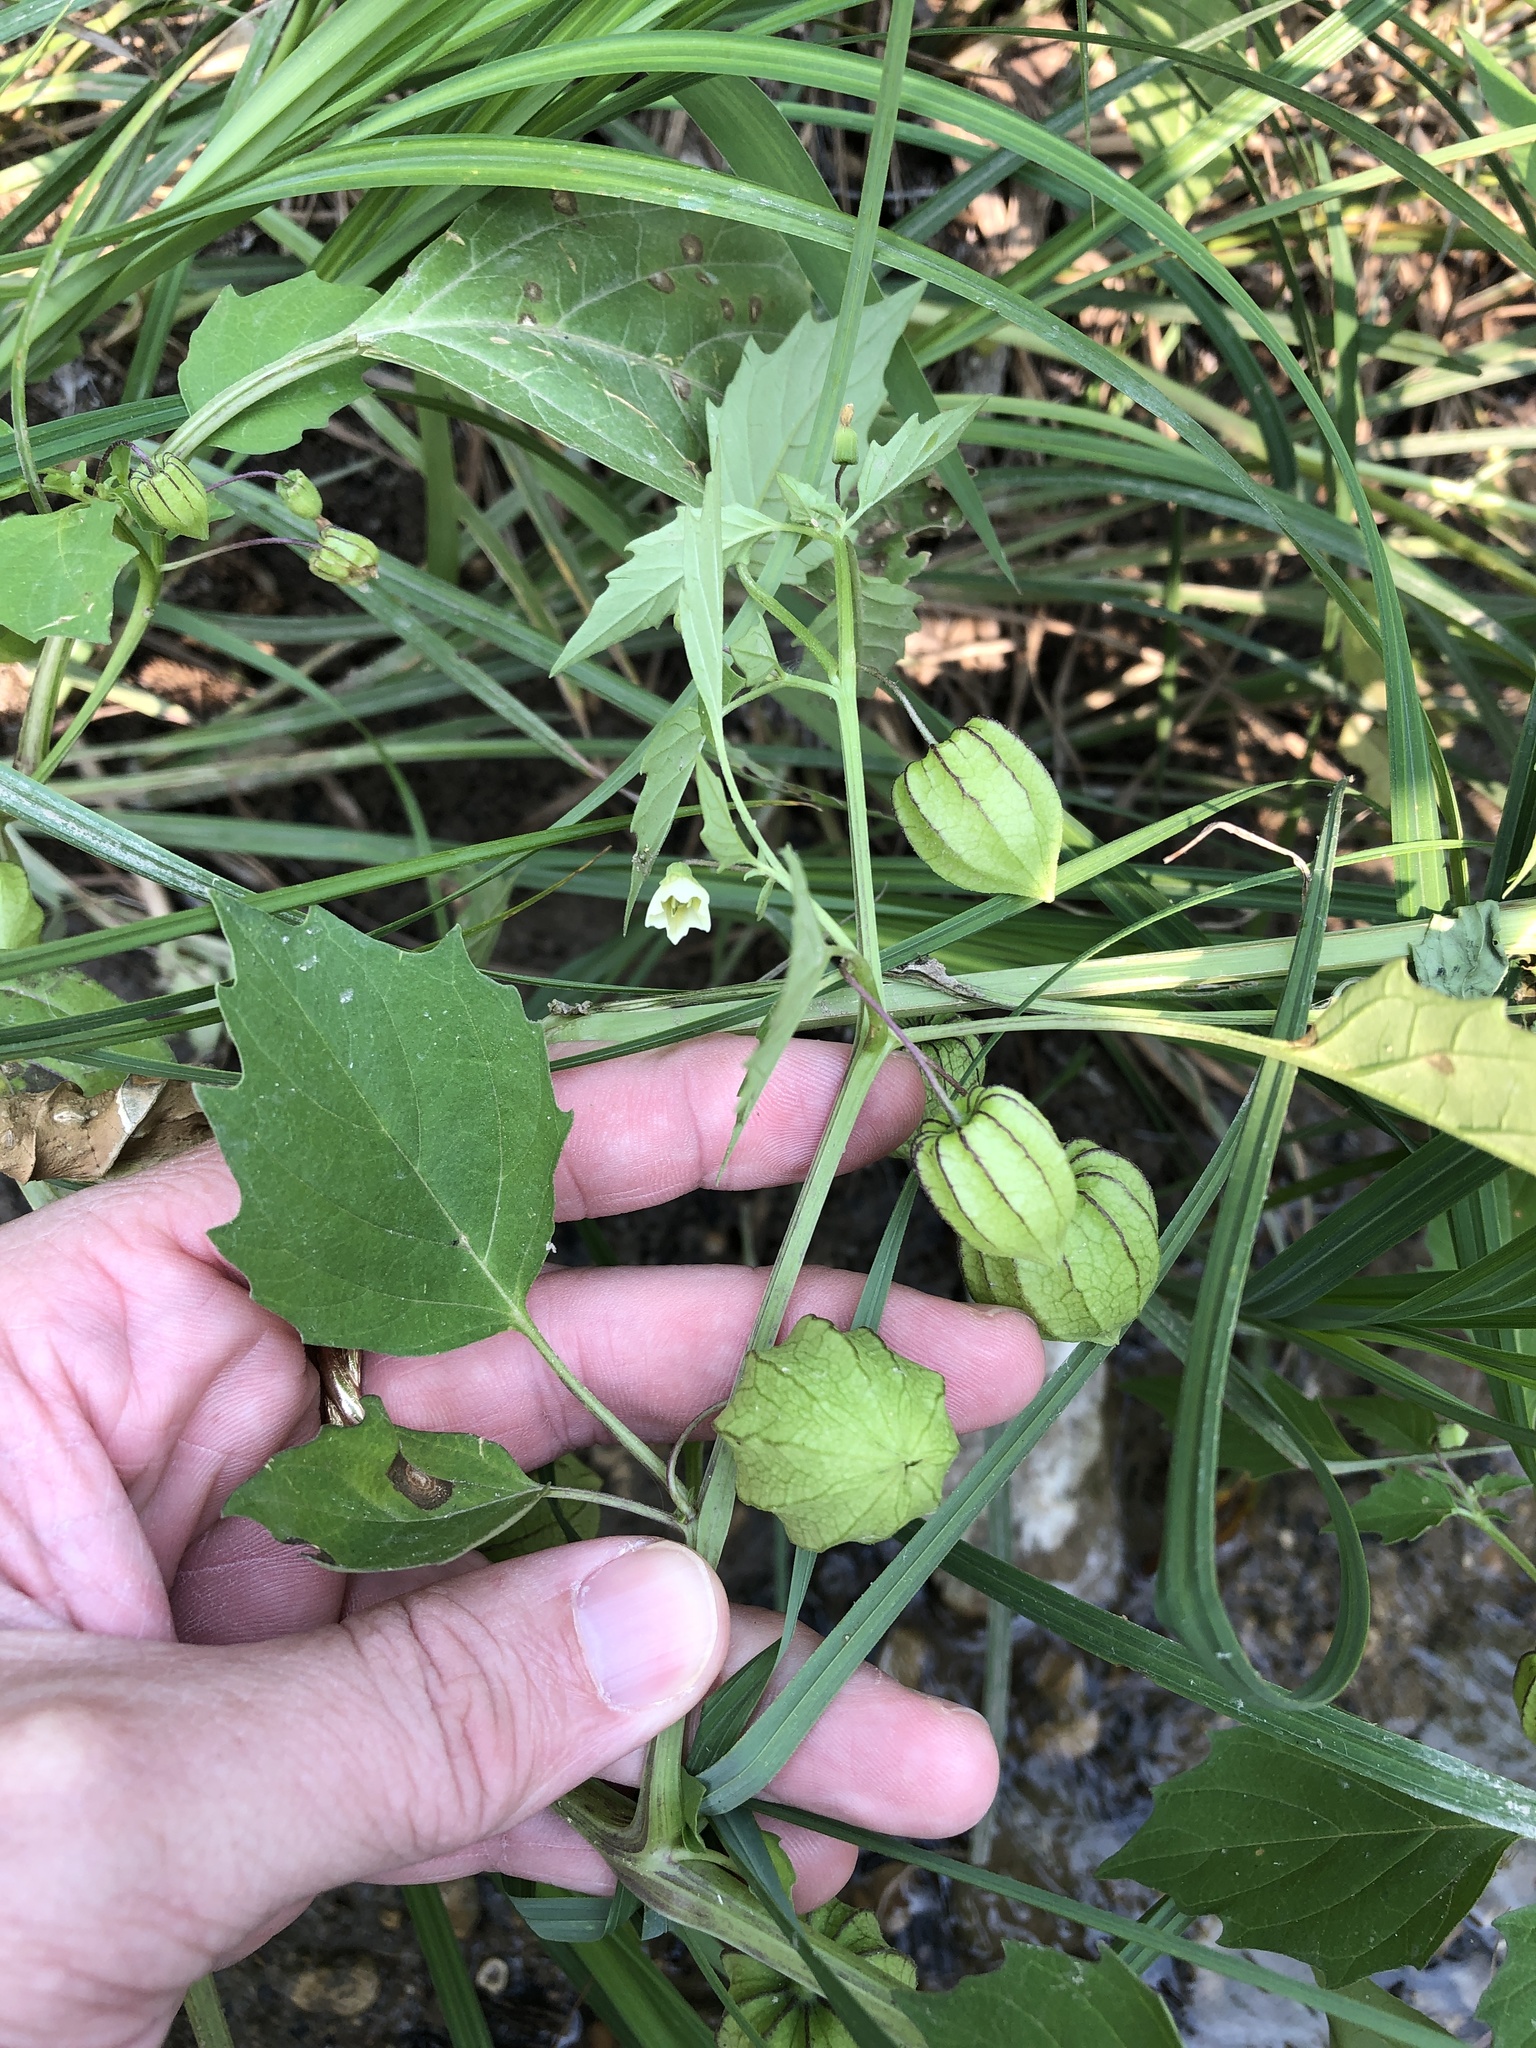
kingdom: Plantae
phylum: Tracheophyta
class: Magnoliopsida
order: Solanales
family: Solanaceae
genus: Physalis
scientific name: Physalis angulata
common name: Angular winter-cherry
